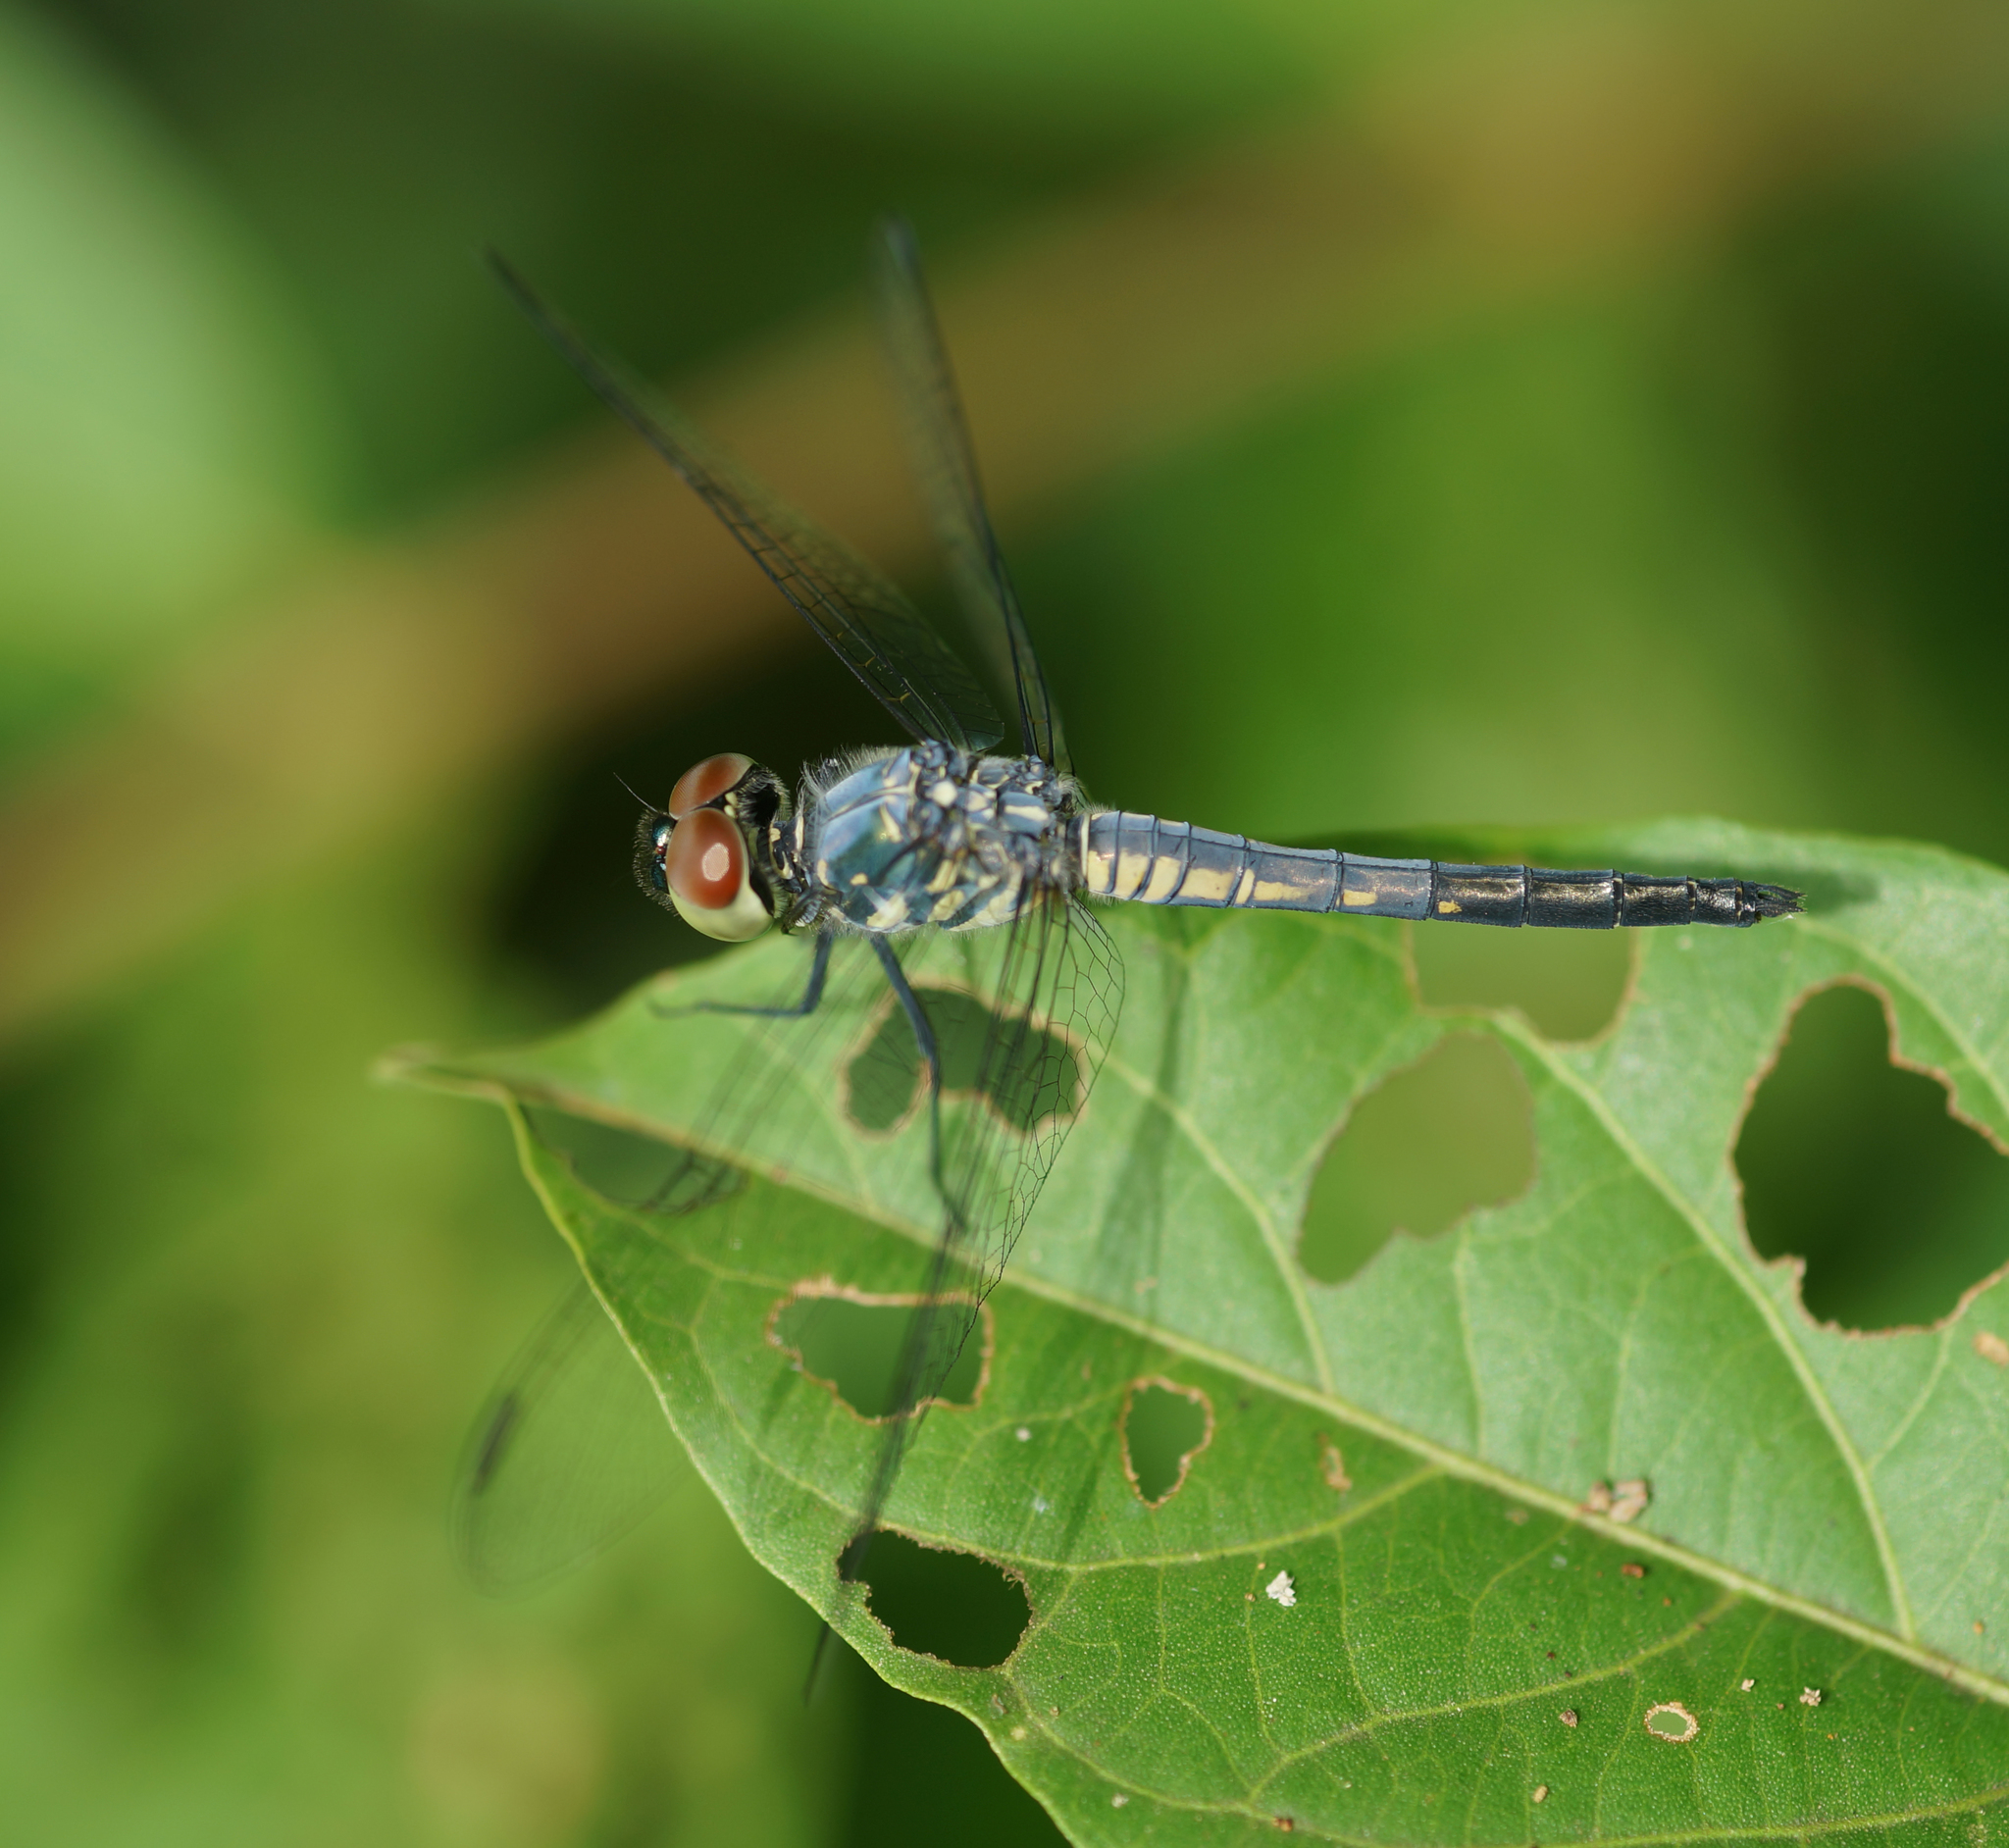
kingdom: Animalia
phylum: Arthropoda
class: Insecta
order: Odonata
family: Libellulidae
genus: Brachydiplax
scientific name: Brachydiplax sobrina
